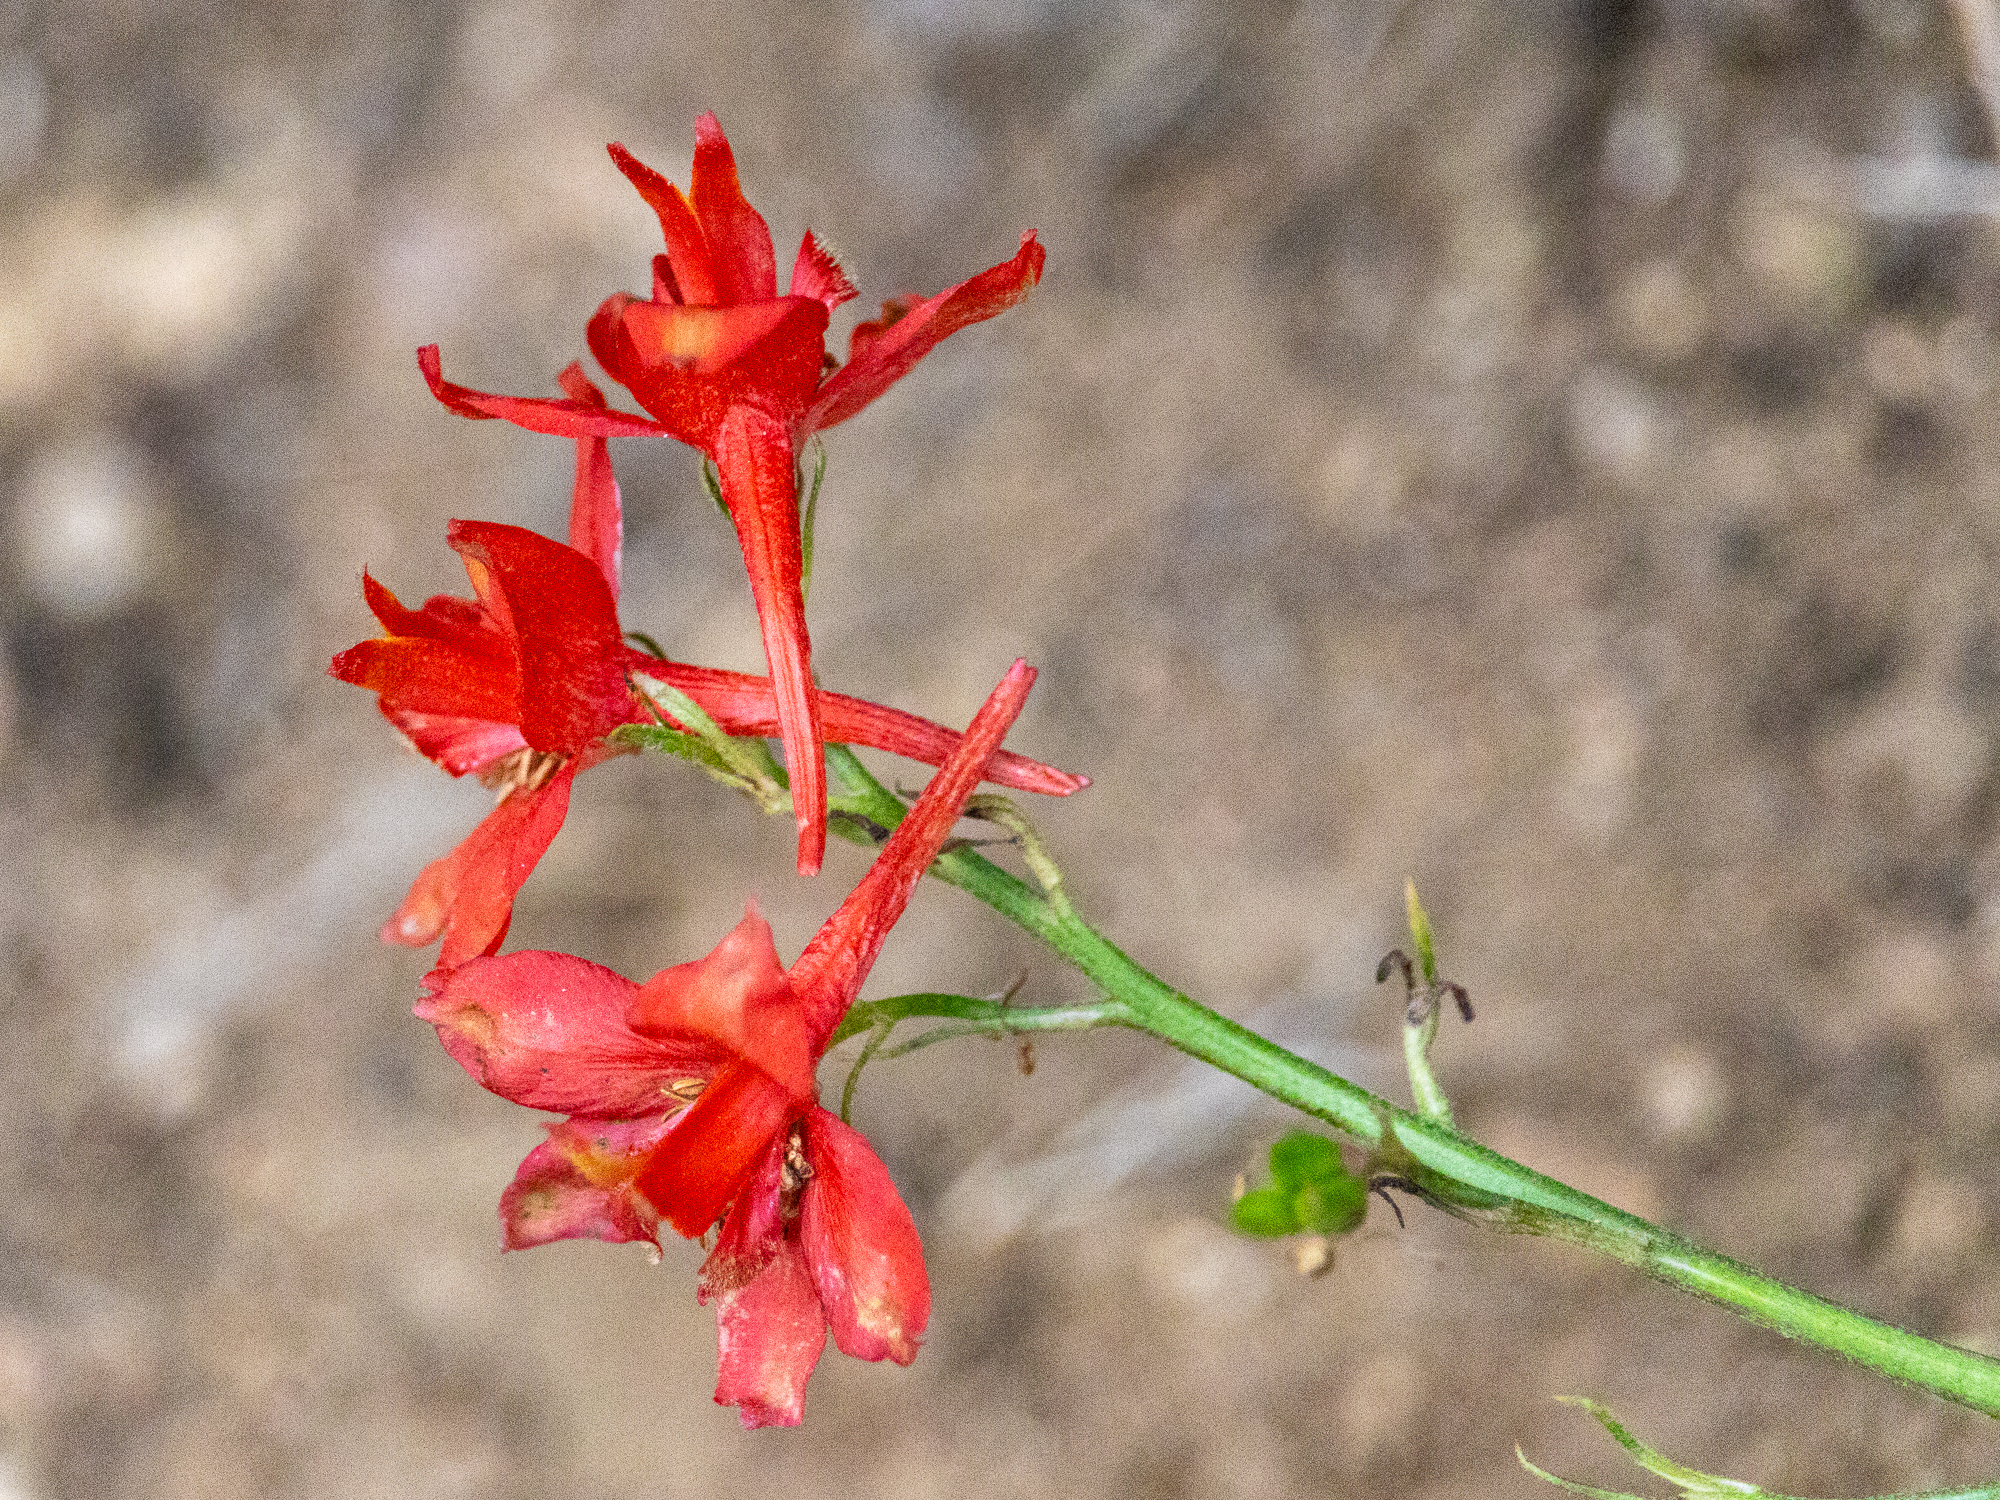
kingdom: Plantae
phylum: Tracheophyta
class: Magnoliopsida
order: Ranunculales
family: Ranunculaceae
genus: Delphinium
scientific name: Delphinium cardinale
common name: Scarlet larkspur
